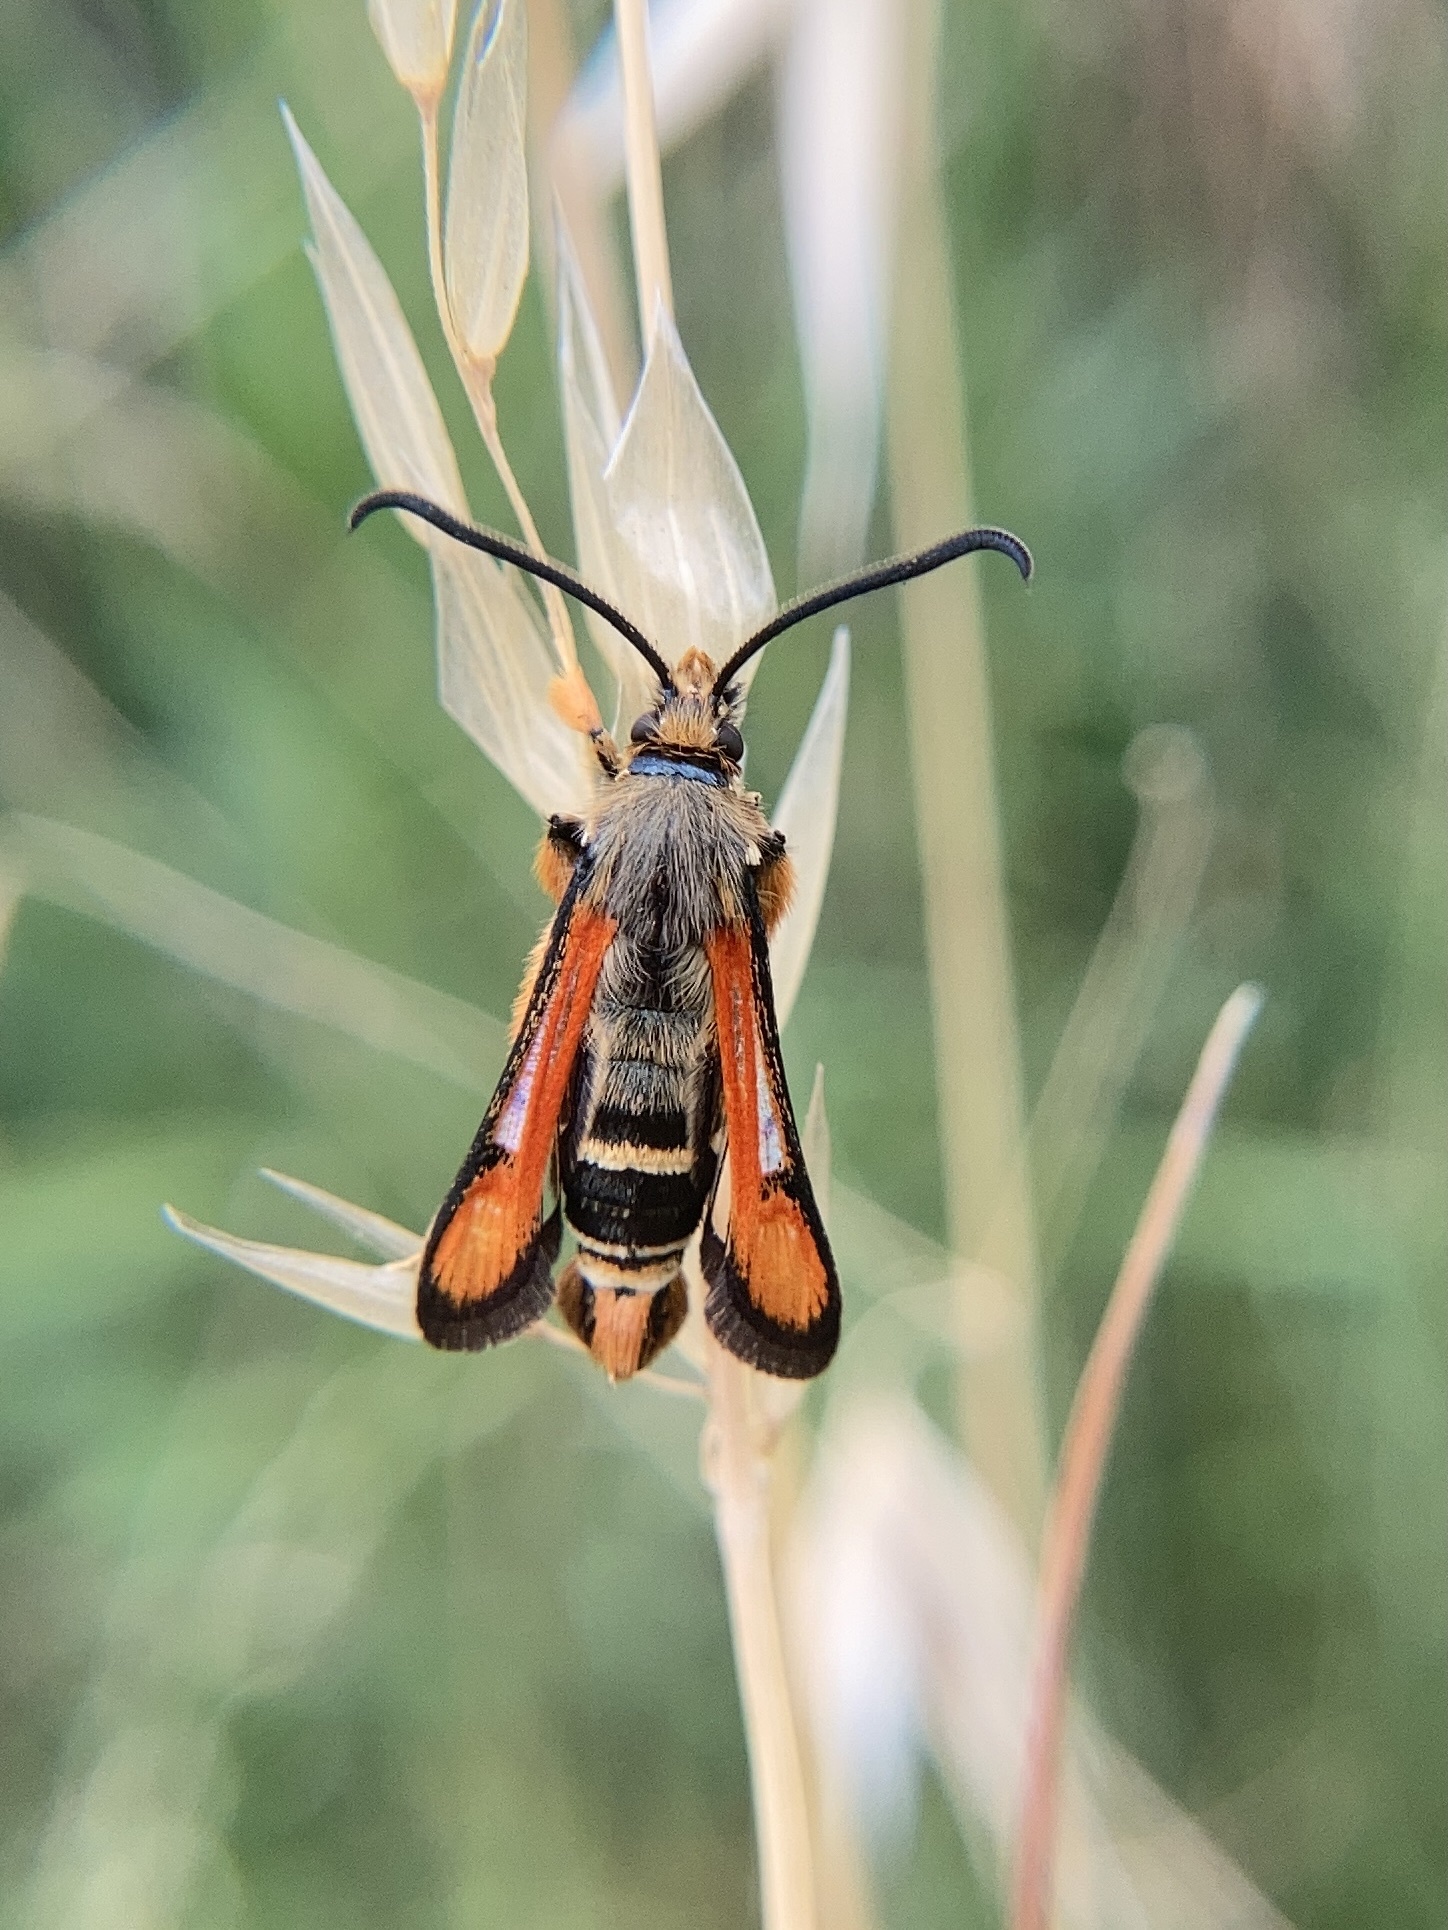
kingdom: Animalia
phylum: Arthropoda
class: Insecta
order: Lepidoptera
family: Sesiidae
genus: Pyropteron
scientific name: Pyropteron chrysidiforme
